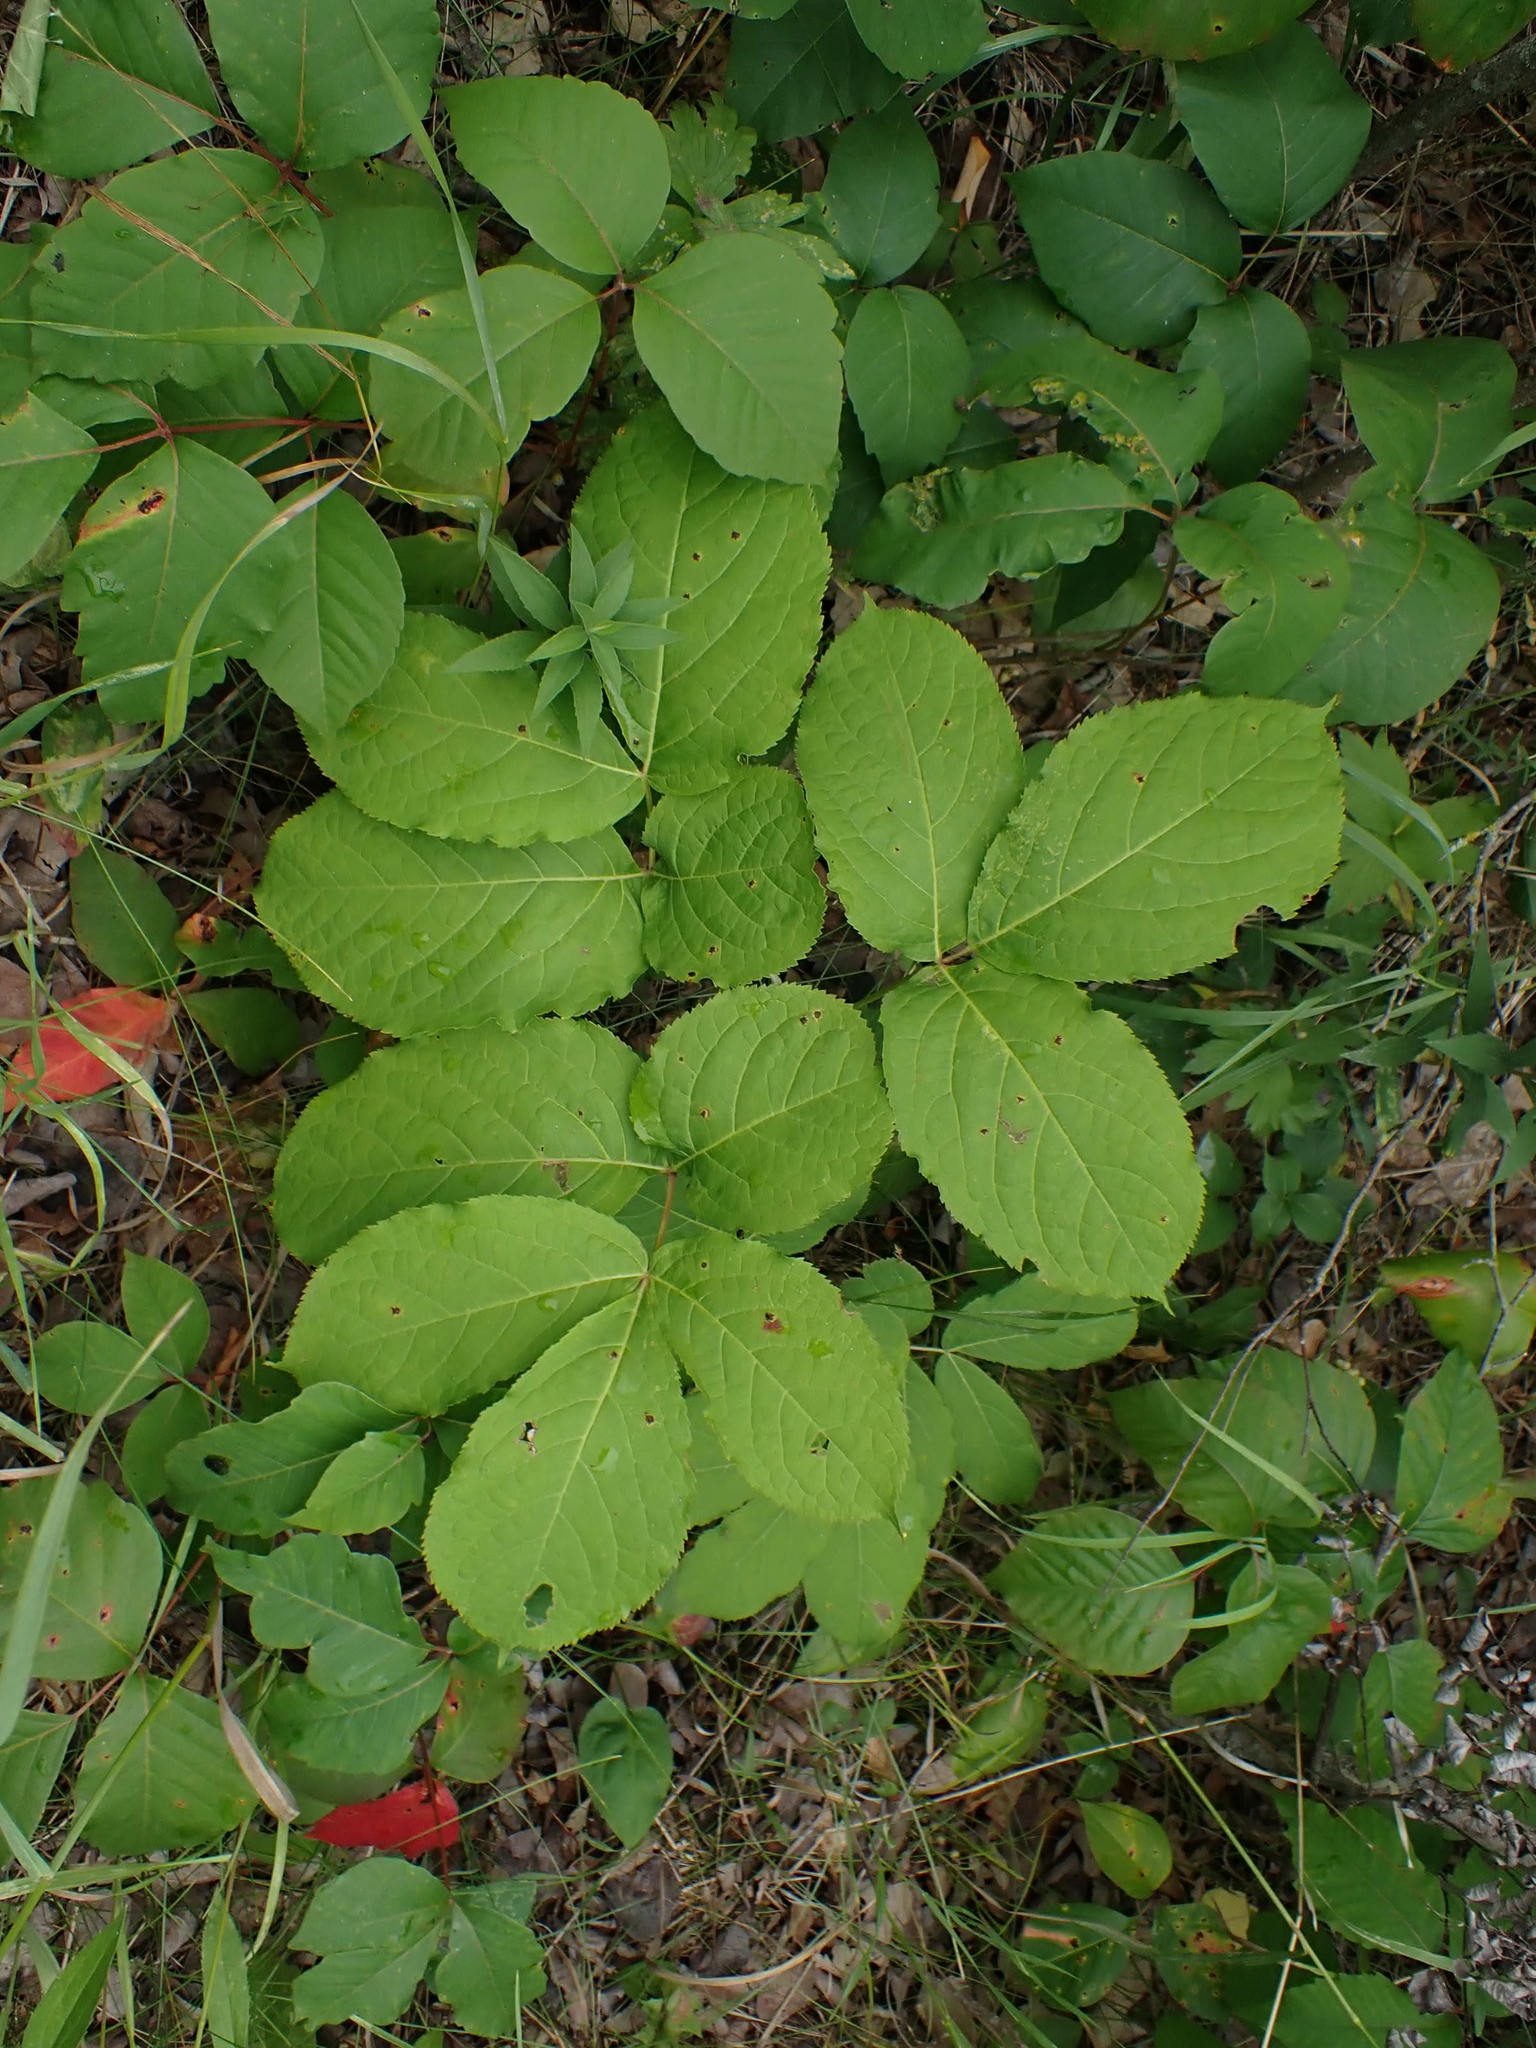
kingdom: Plantae
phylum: Tracheophyta
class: Magnoliopsida
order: Apiales
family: Araliaceae
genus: Aralia
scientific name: Aralia nudicaulis
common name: Wild sarsaparilla
